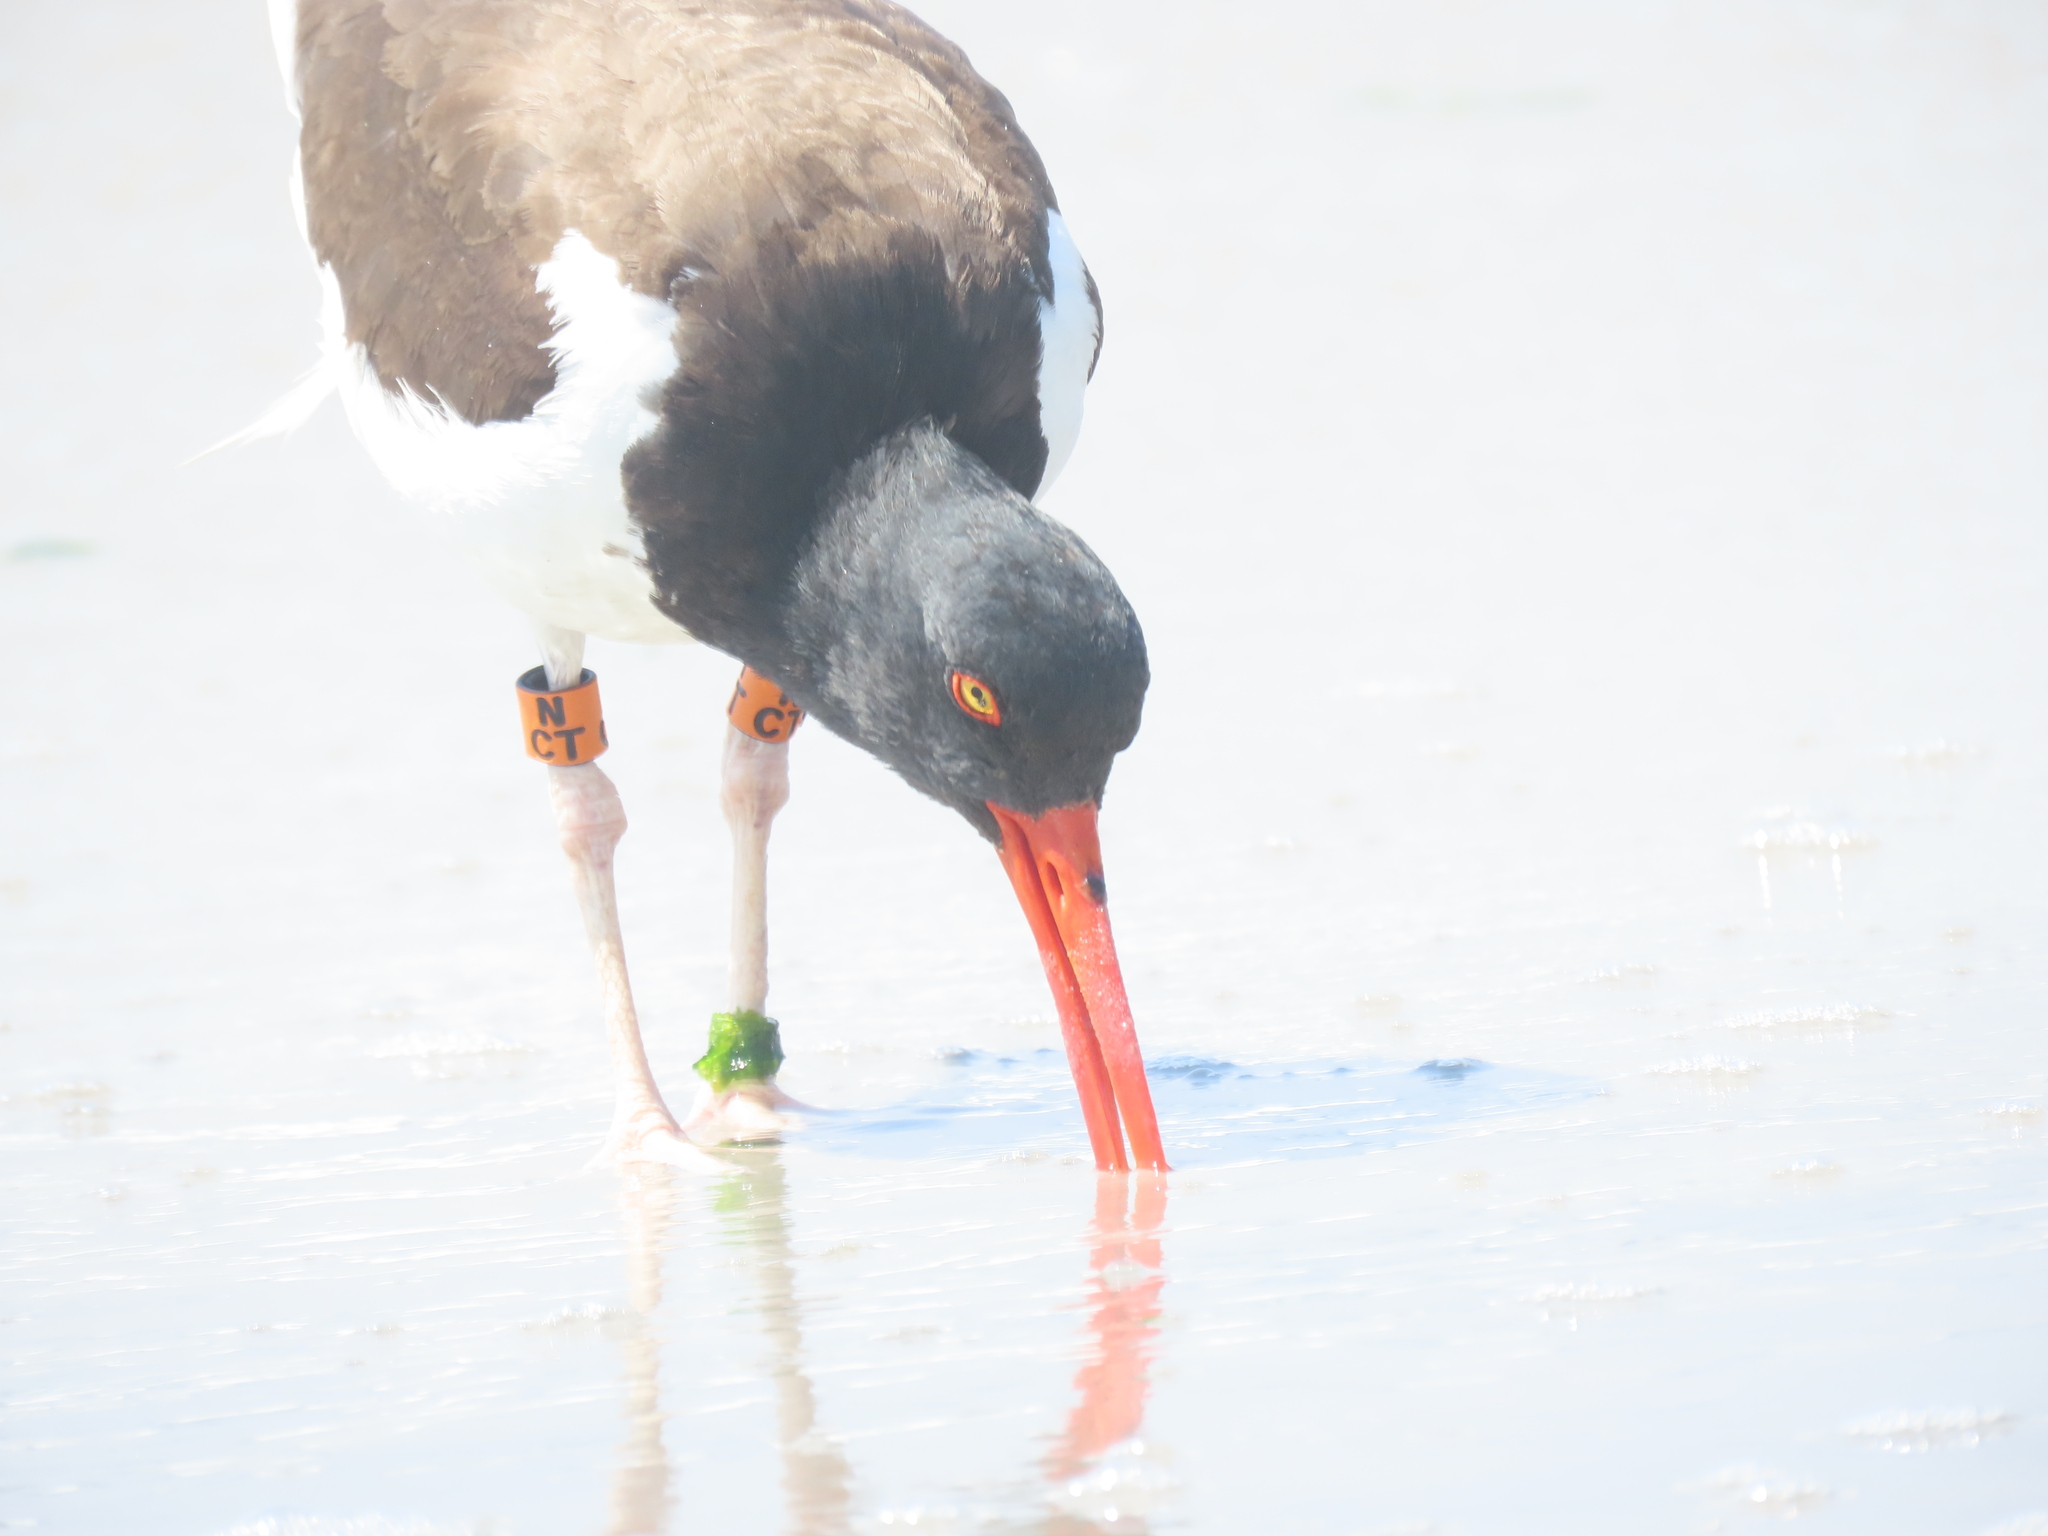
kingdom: Animalia
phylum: Chordata
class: Aves
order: Charadriiformes
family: Haematopodidae
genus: Haematopus
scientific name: Haematopus palliatus
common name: American oystercatcher
